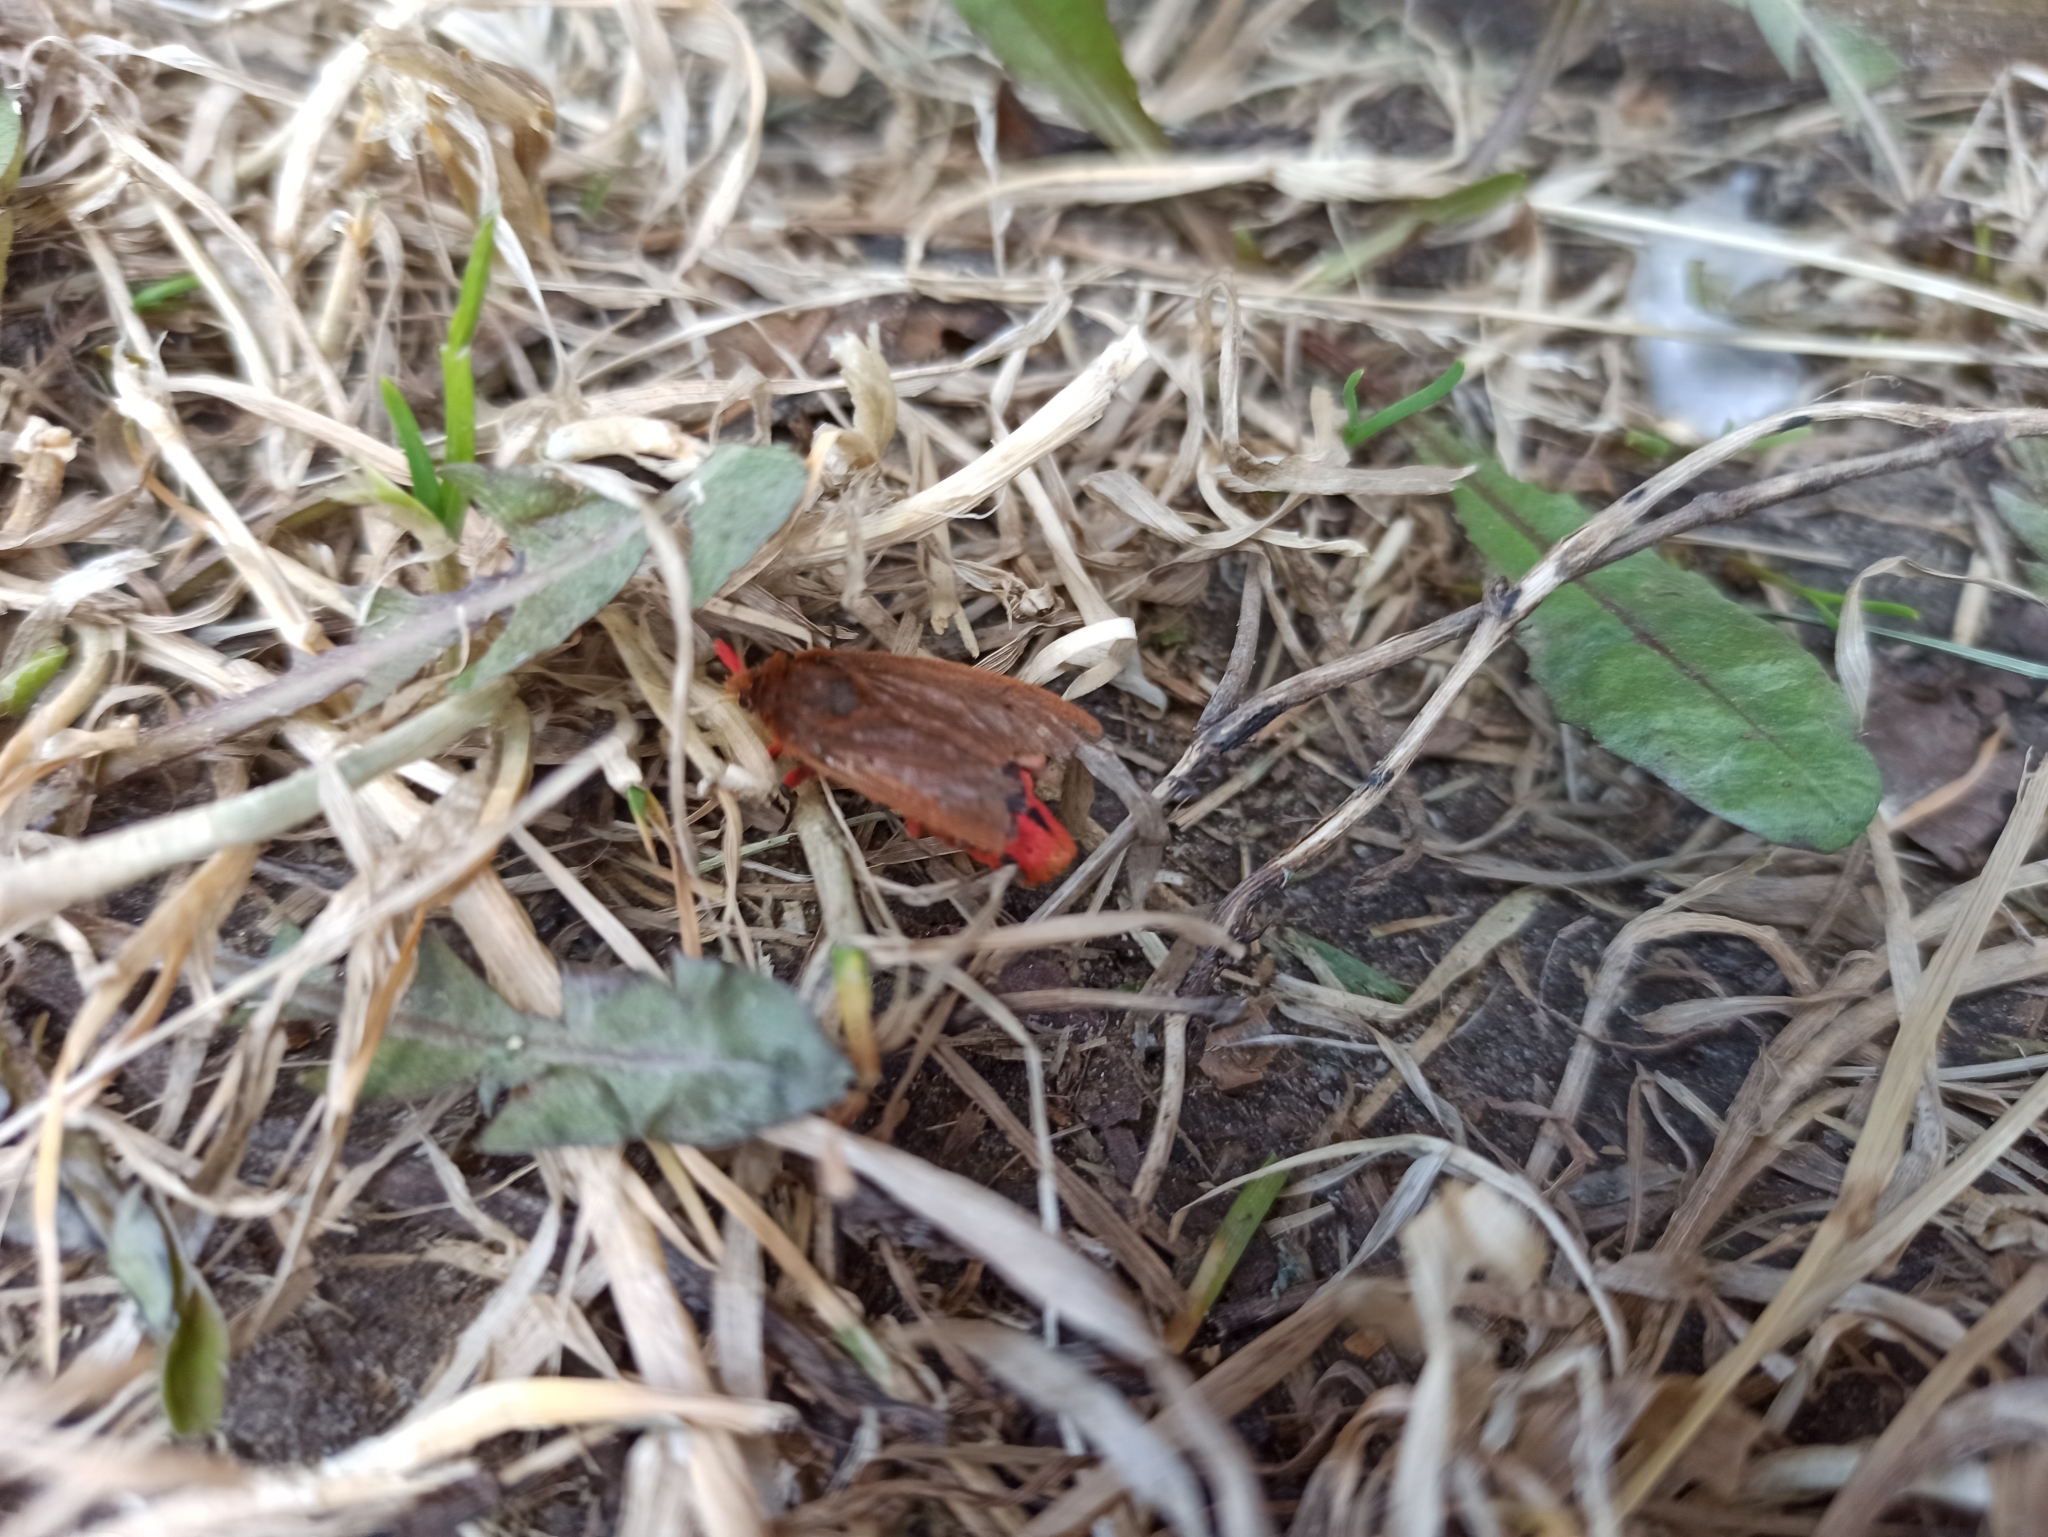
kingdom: Animalia
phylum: Arthropoda
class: Insecta
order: Lepidoptera
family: Erebidae
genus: Phragmatobia
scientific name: Phragmatobia fuliginosa
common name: Ruby tiger
